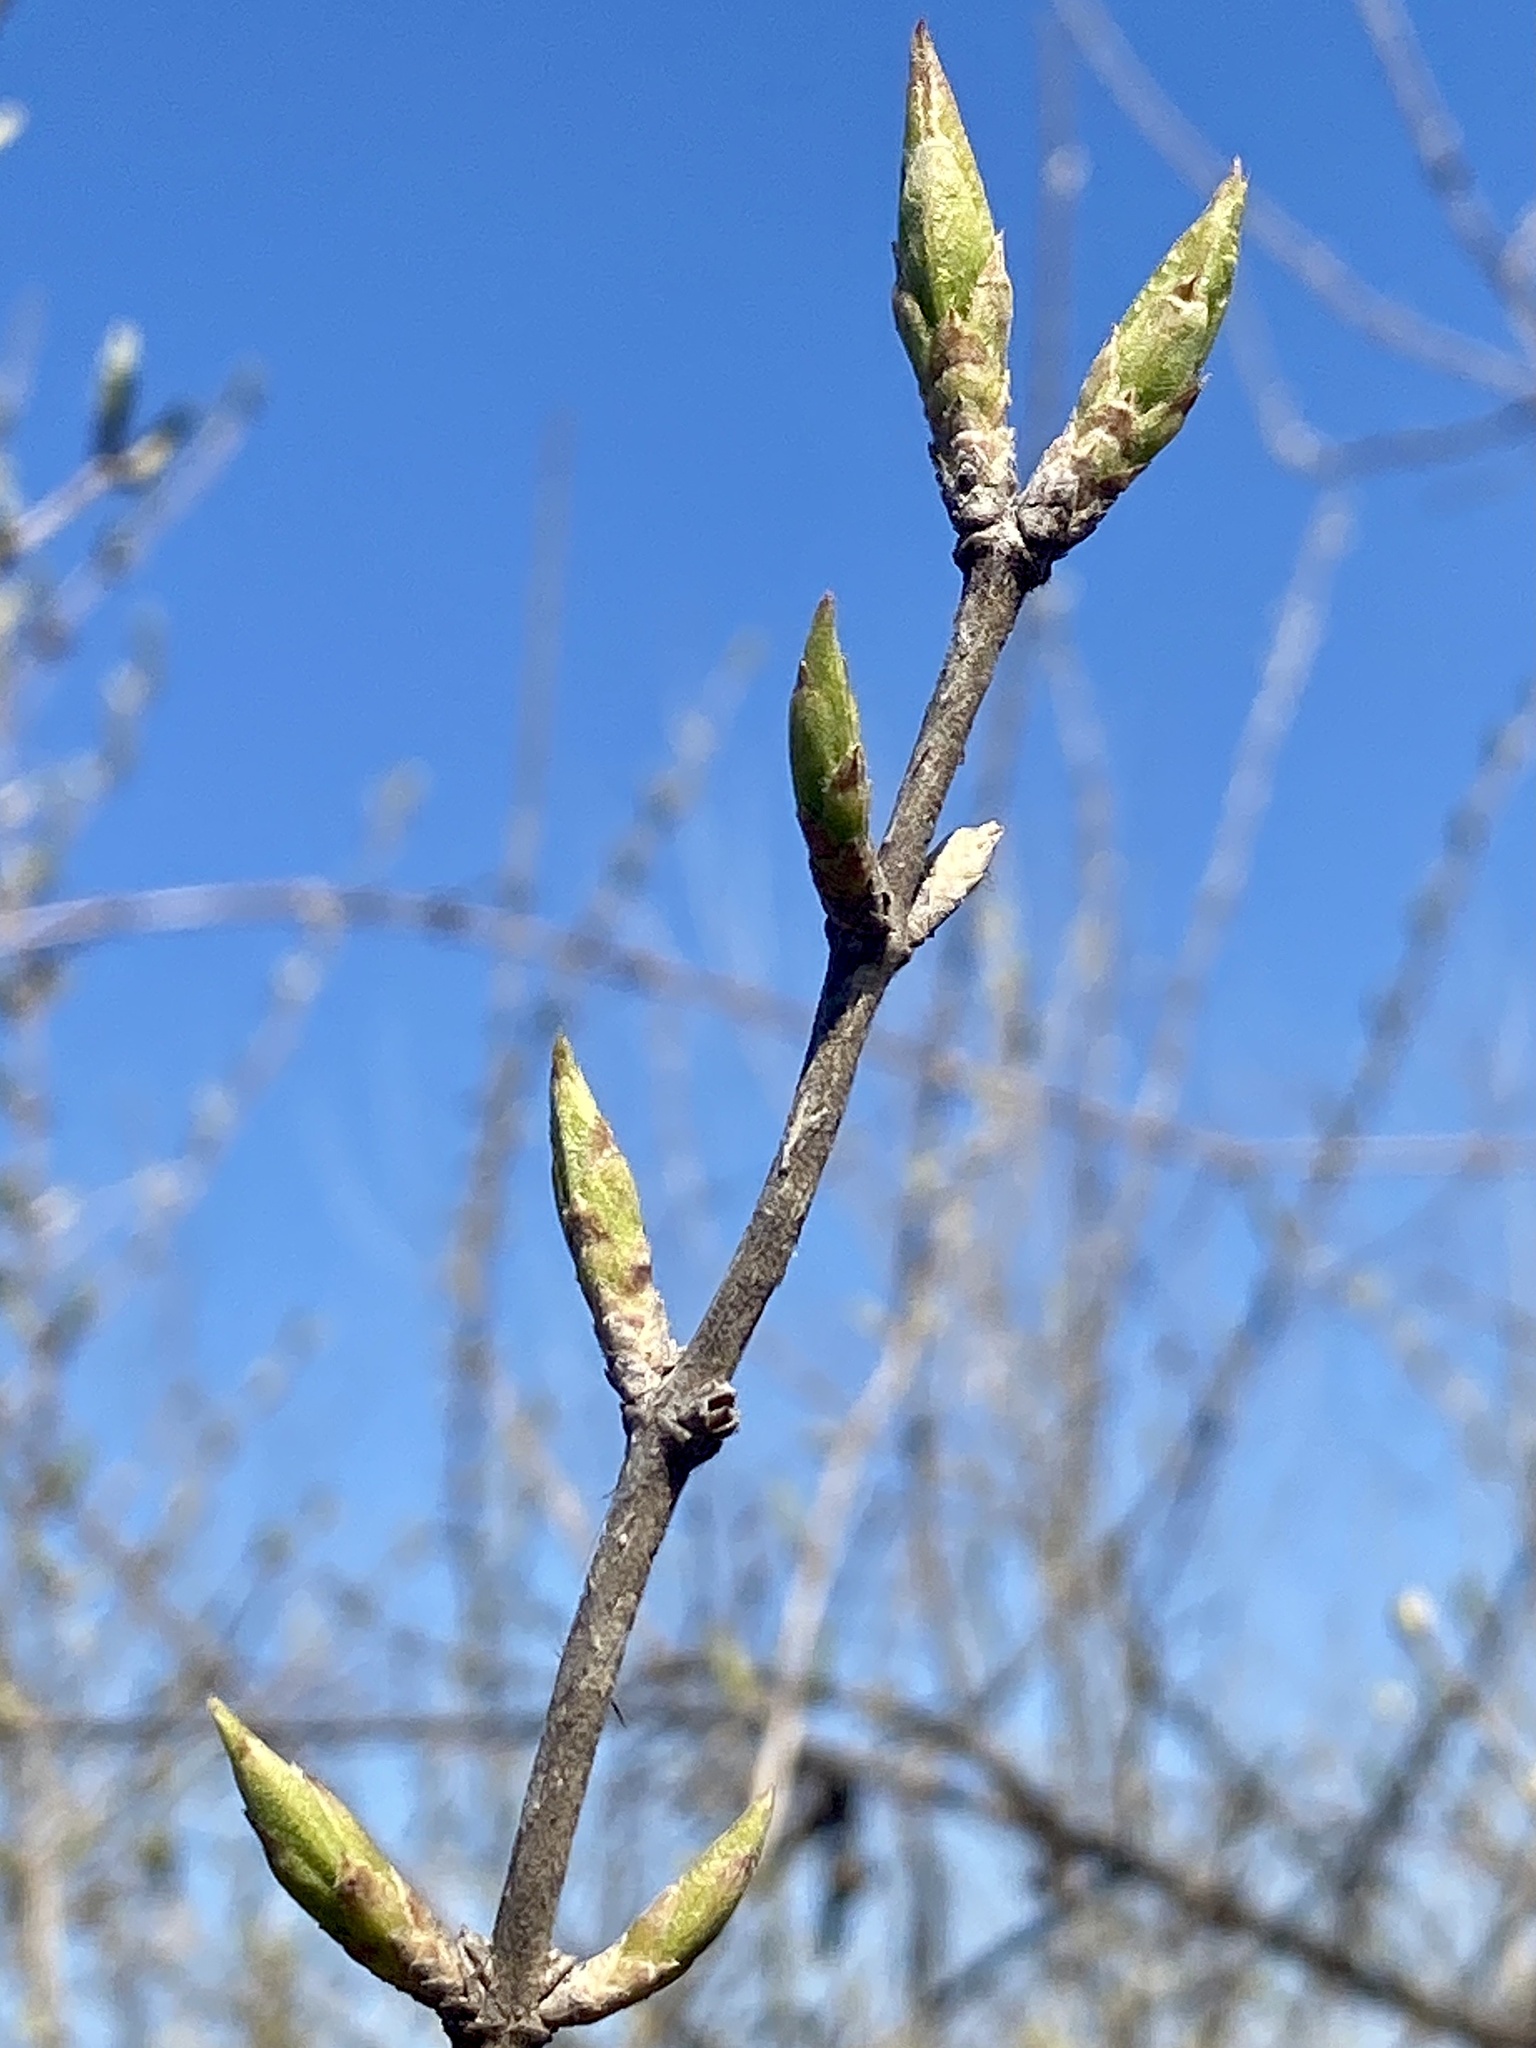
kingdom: Plantae
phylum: Tracheophyta
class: Magnoliopsida
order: Dipsacales
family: Caprifoliaceae
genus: Lonicera
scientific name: Lonicera maackii
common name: Amur honeysuckle
